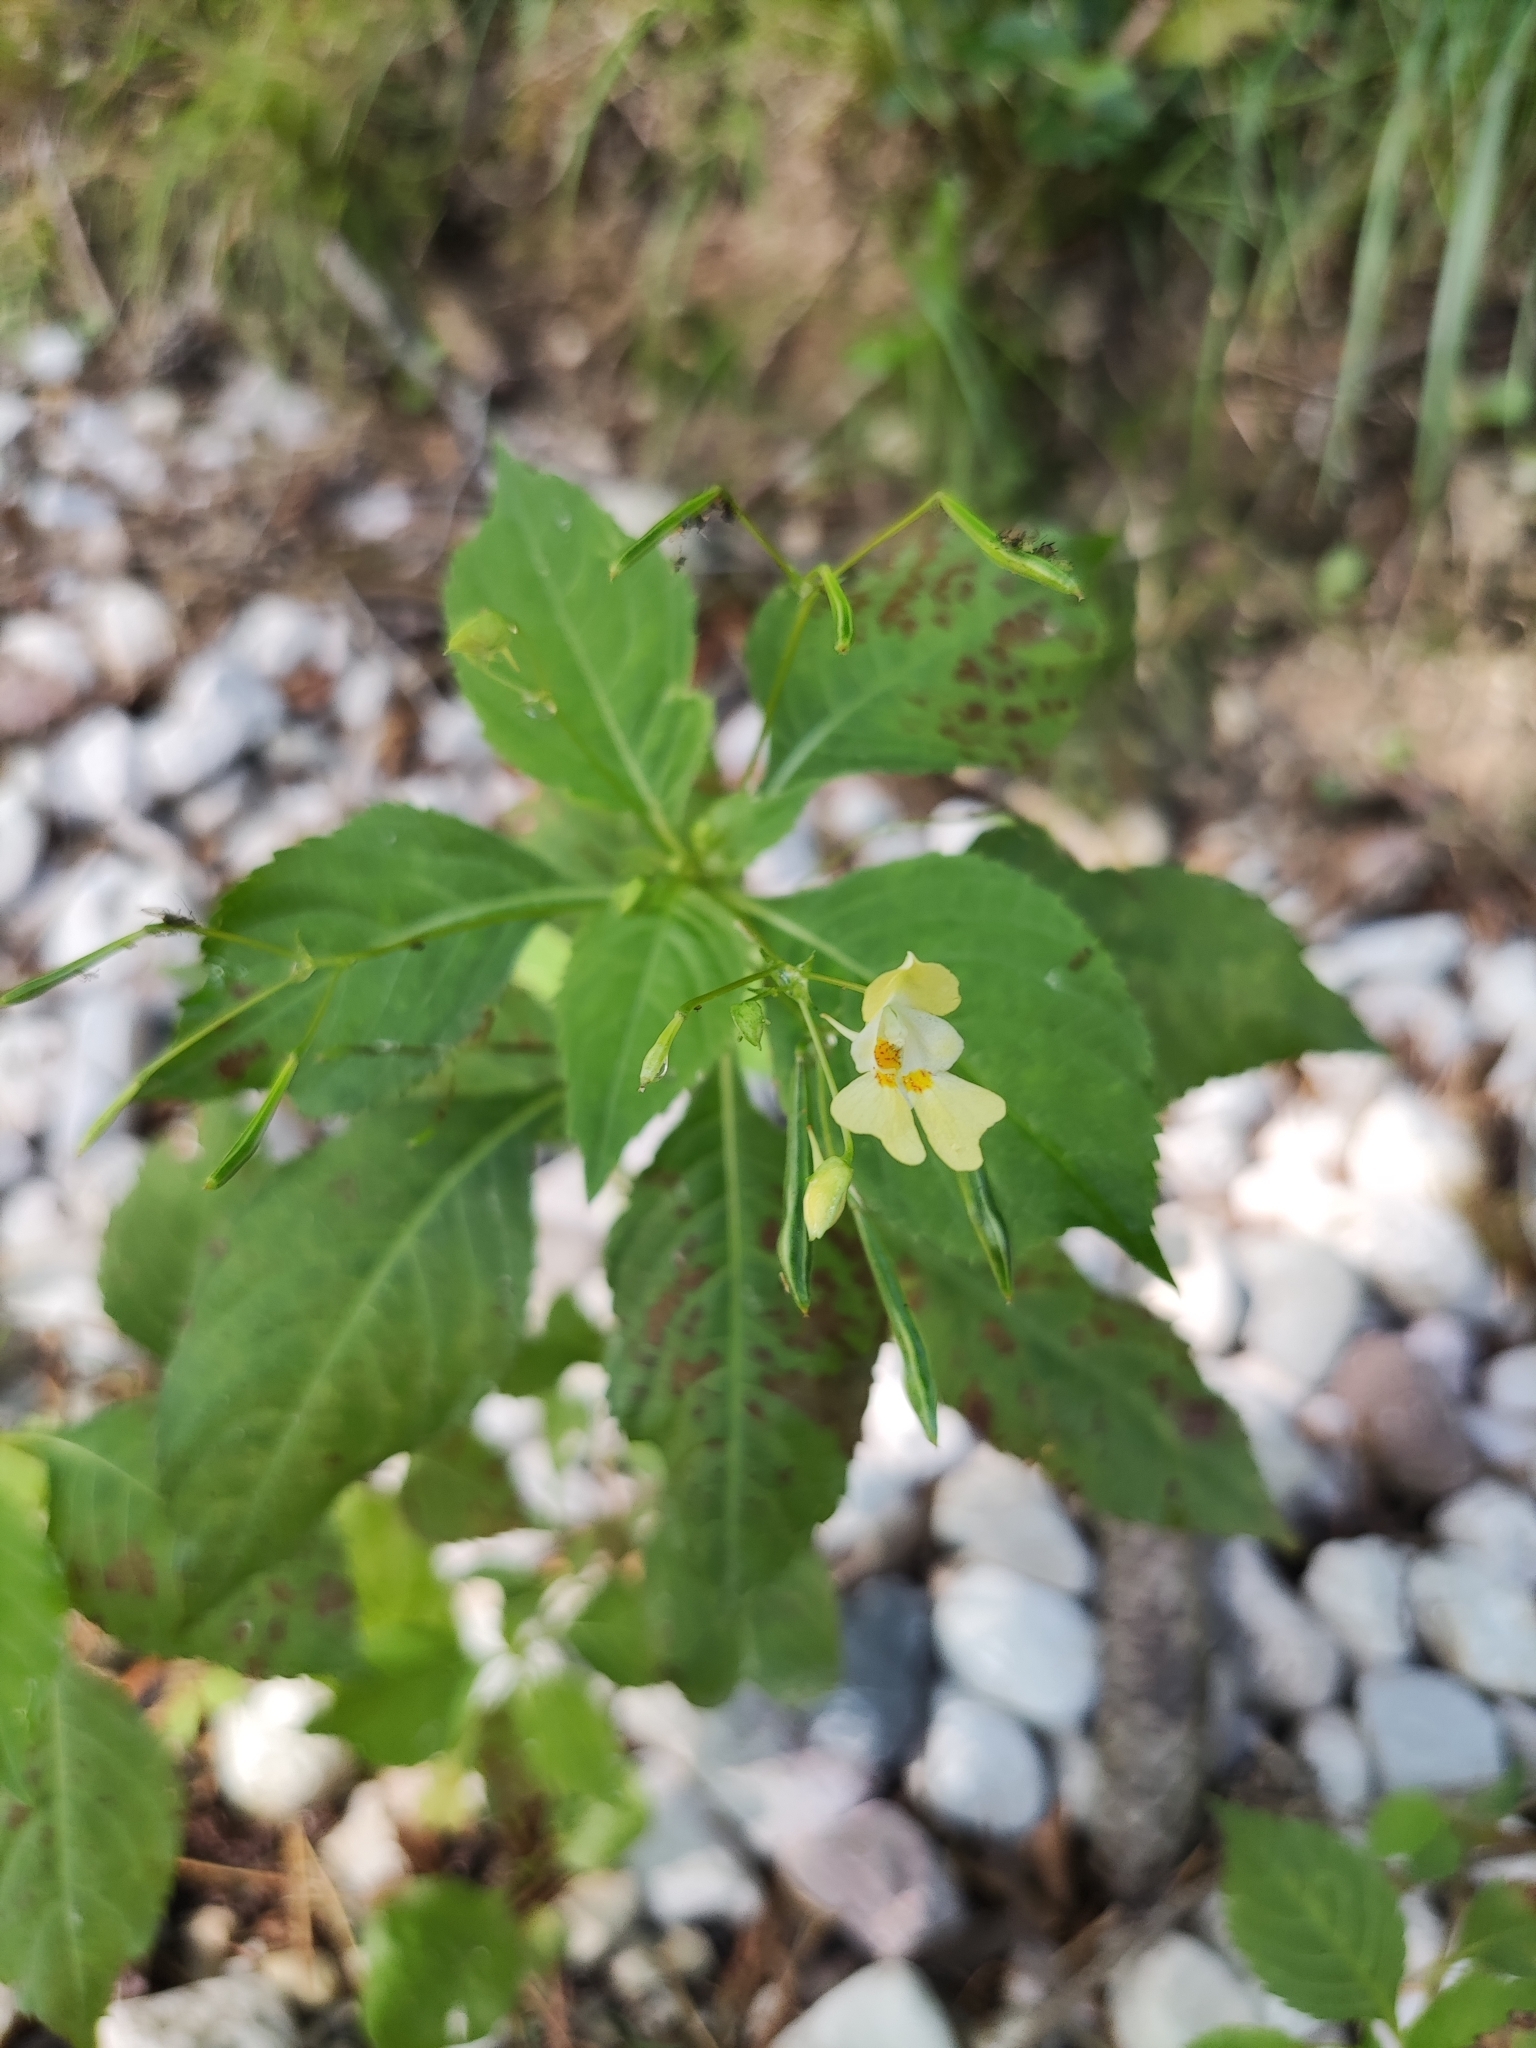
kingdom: Plantae
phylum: Tracheophyta
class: Magnoliopsida
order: Ericales
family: Balsaminaceae
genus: Impatiens
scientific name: Impatiens parviflora
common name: Small balsam
